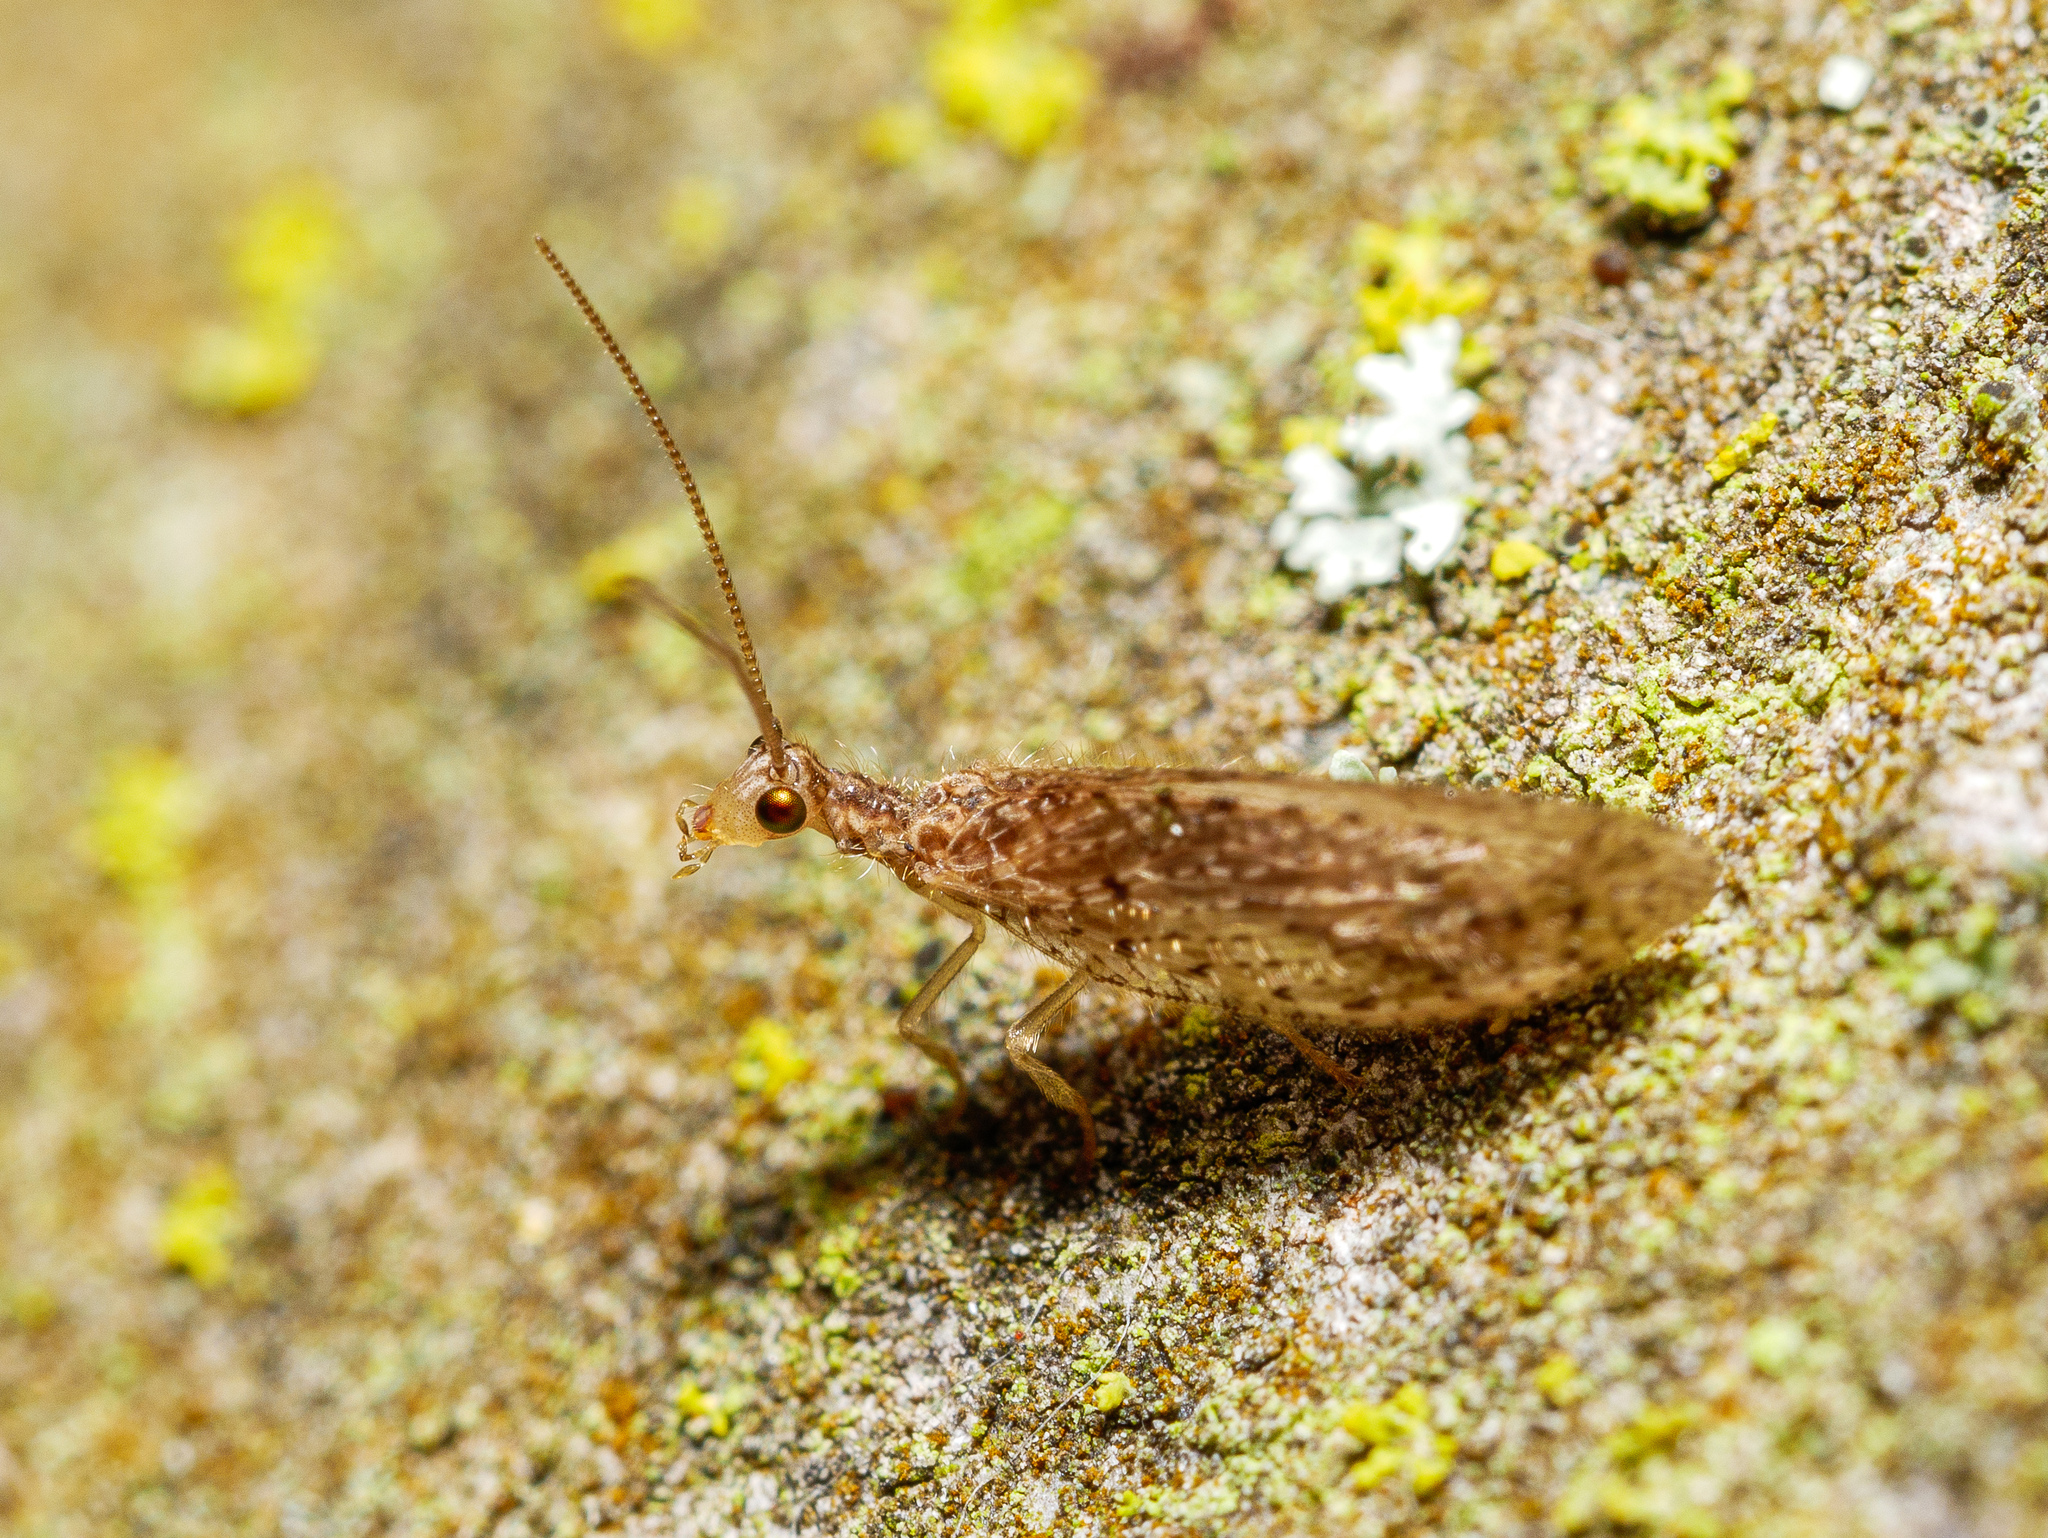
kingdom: Animalia
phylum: Arthropoda
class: Insecta
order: Neuroptera
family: Hemerobiidae
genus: Micromus
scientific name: Micromus tasmaniae
